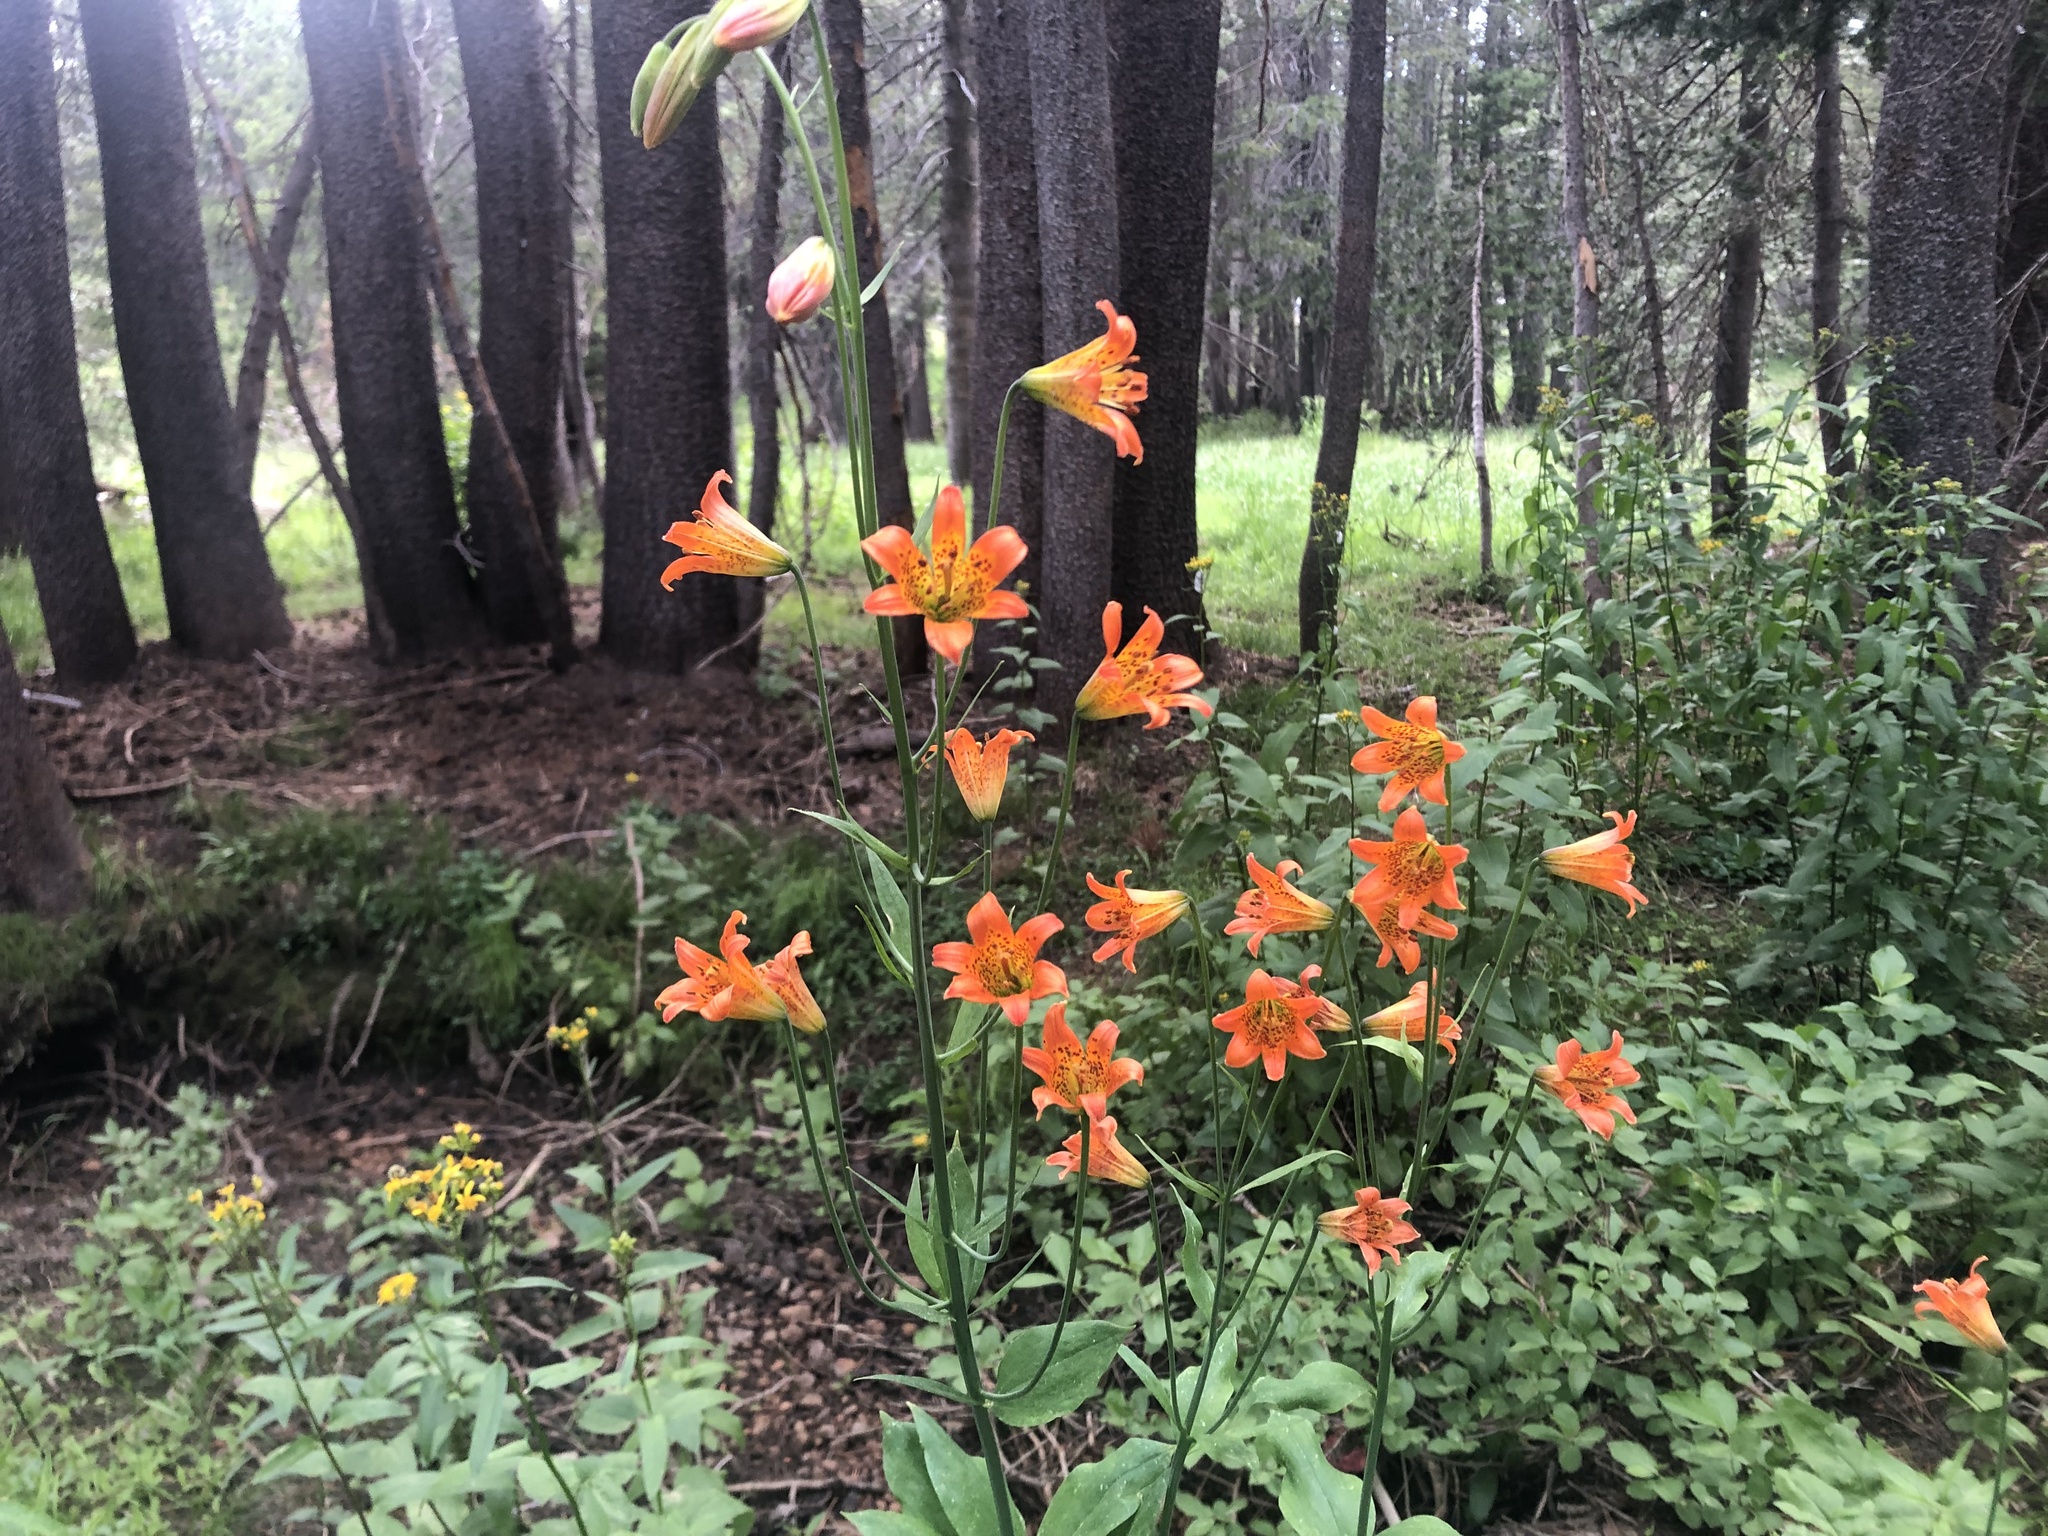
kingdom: Plantae
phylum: Tracheophyta
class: Liliopsida
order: Liliales
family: Liliaceae
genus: Lilium
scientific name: Lilium parvum
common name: Alpine lily
